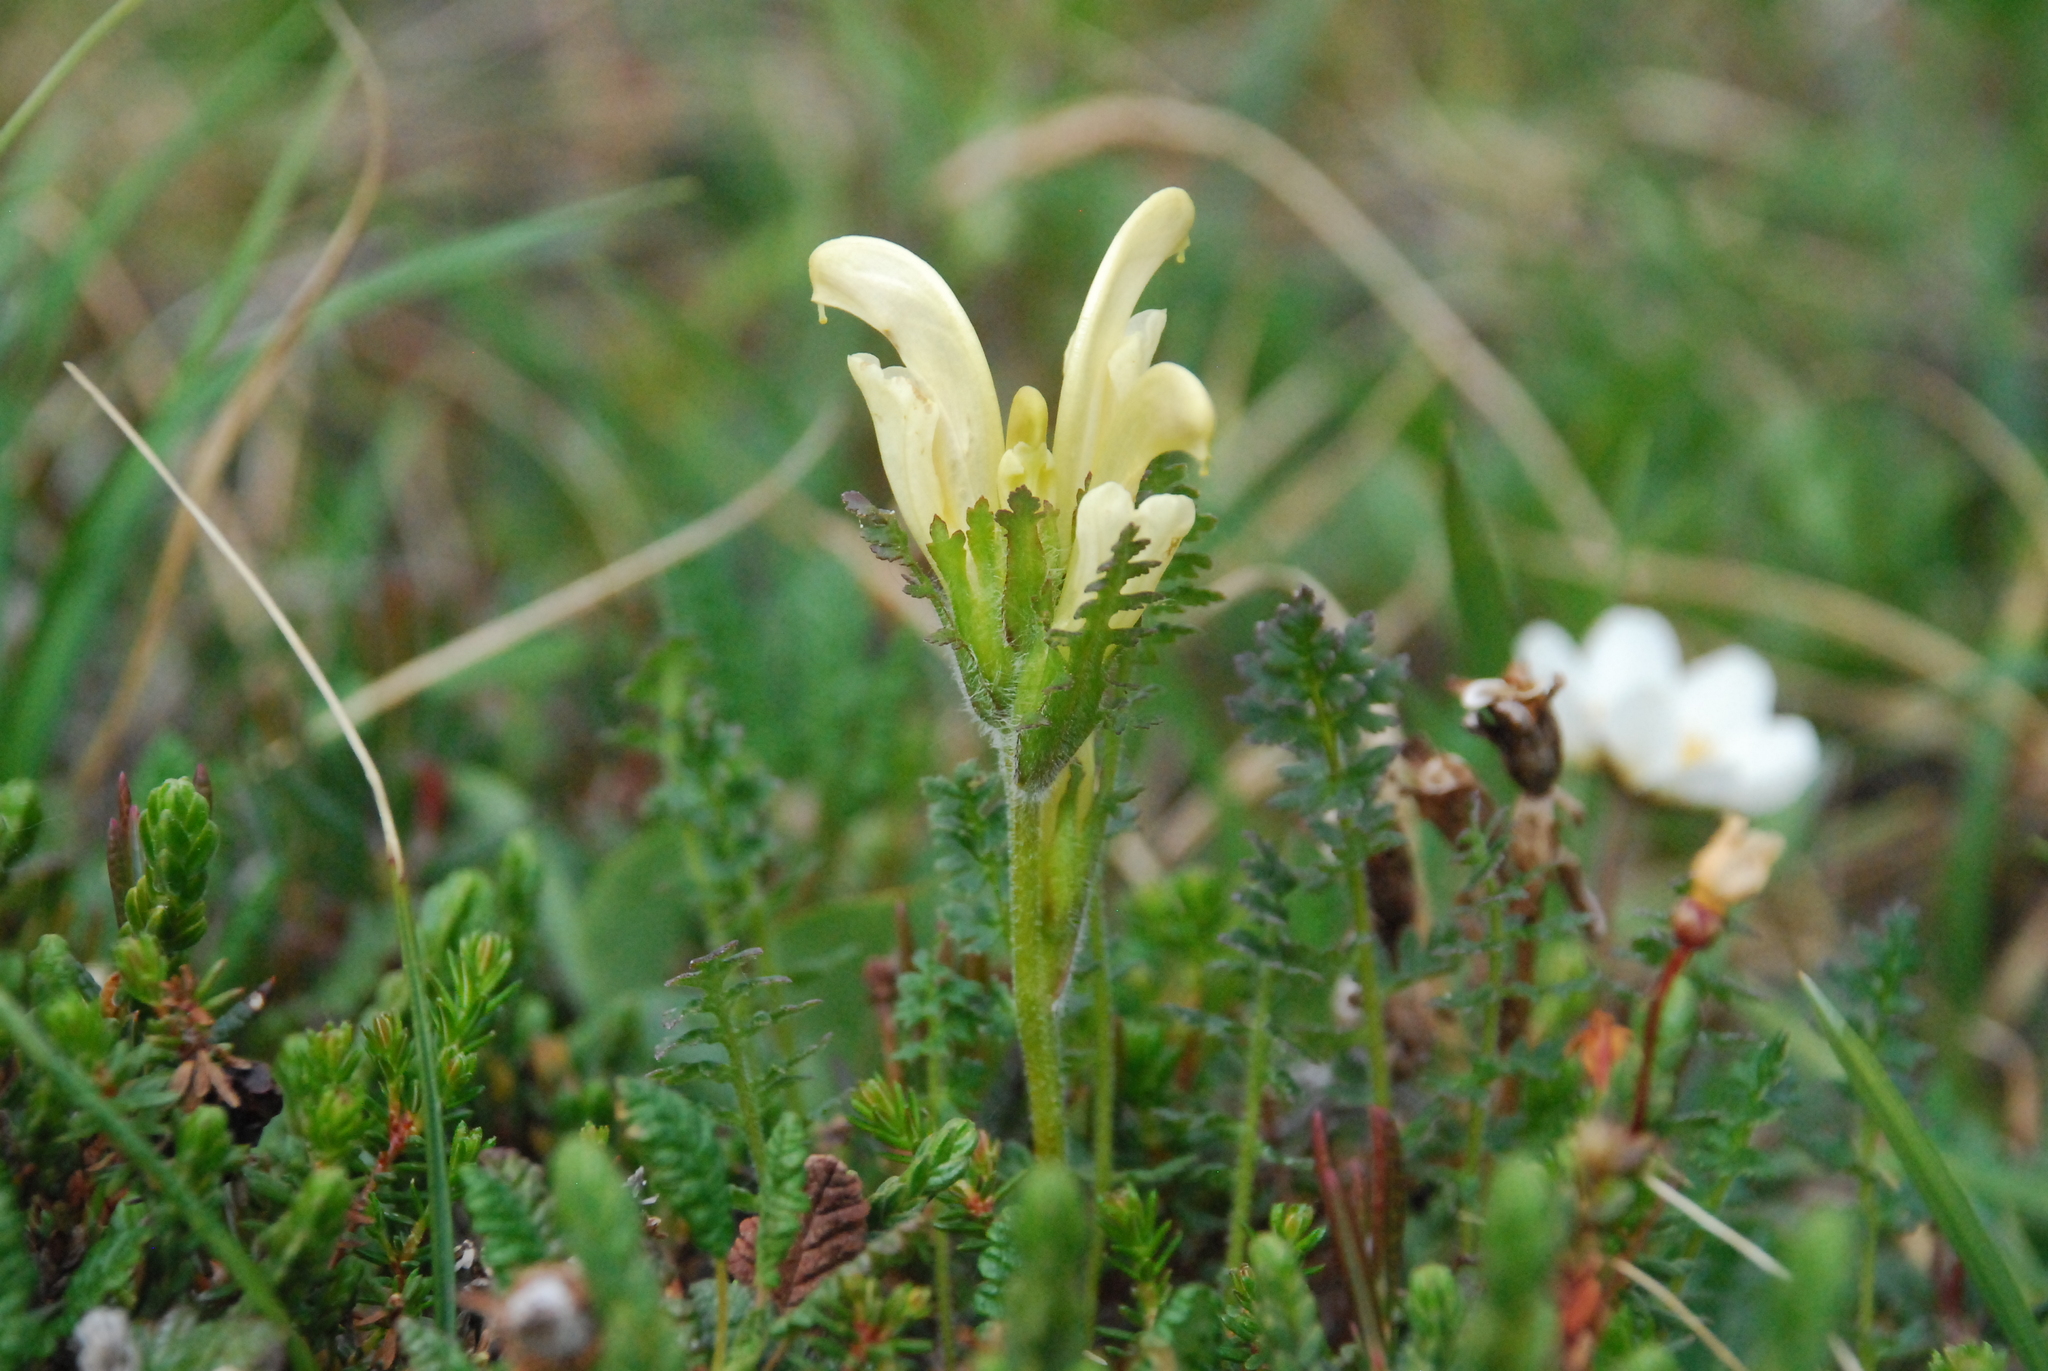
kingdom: Plantae
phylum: Tracheophyta
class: Magnoliopsida
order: Lamiales
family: Orobanchaceae
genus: Pedicularis
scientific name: Pedicularis capitata
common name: Capitate lousewort
